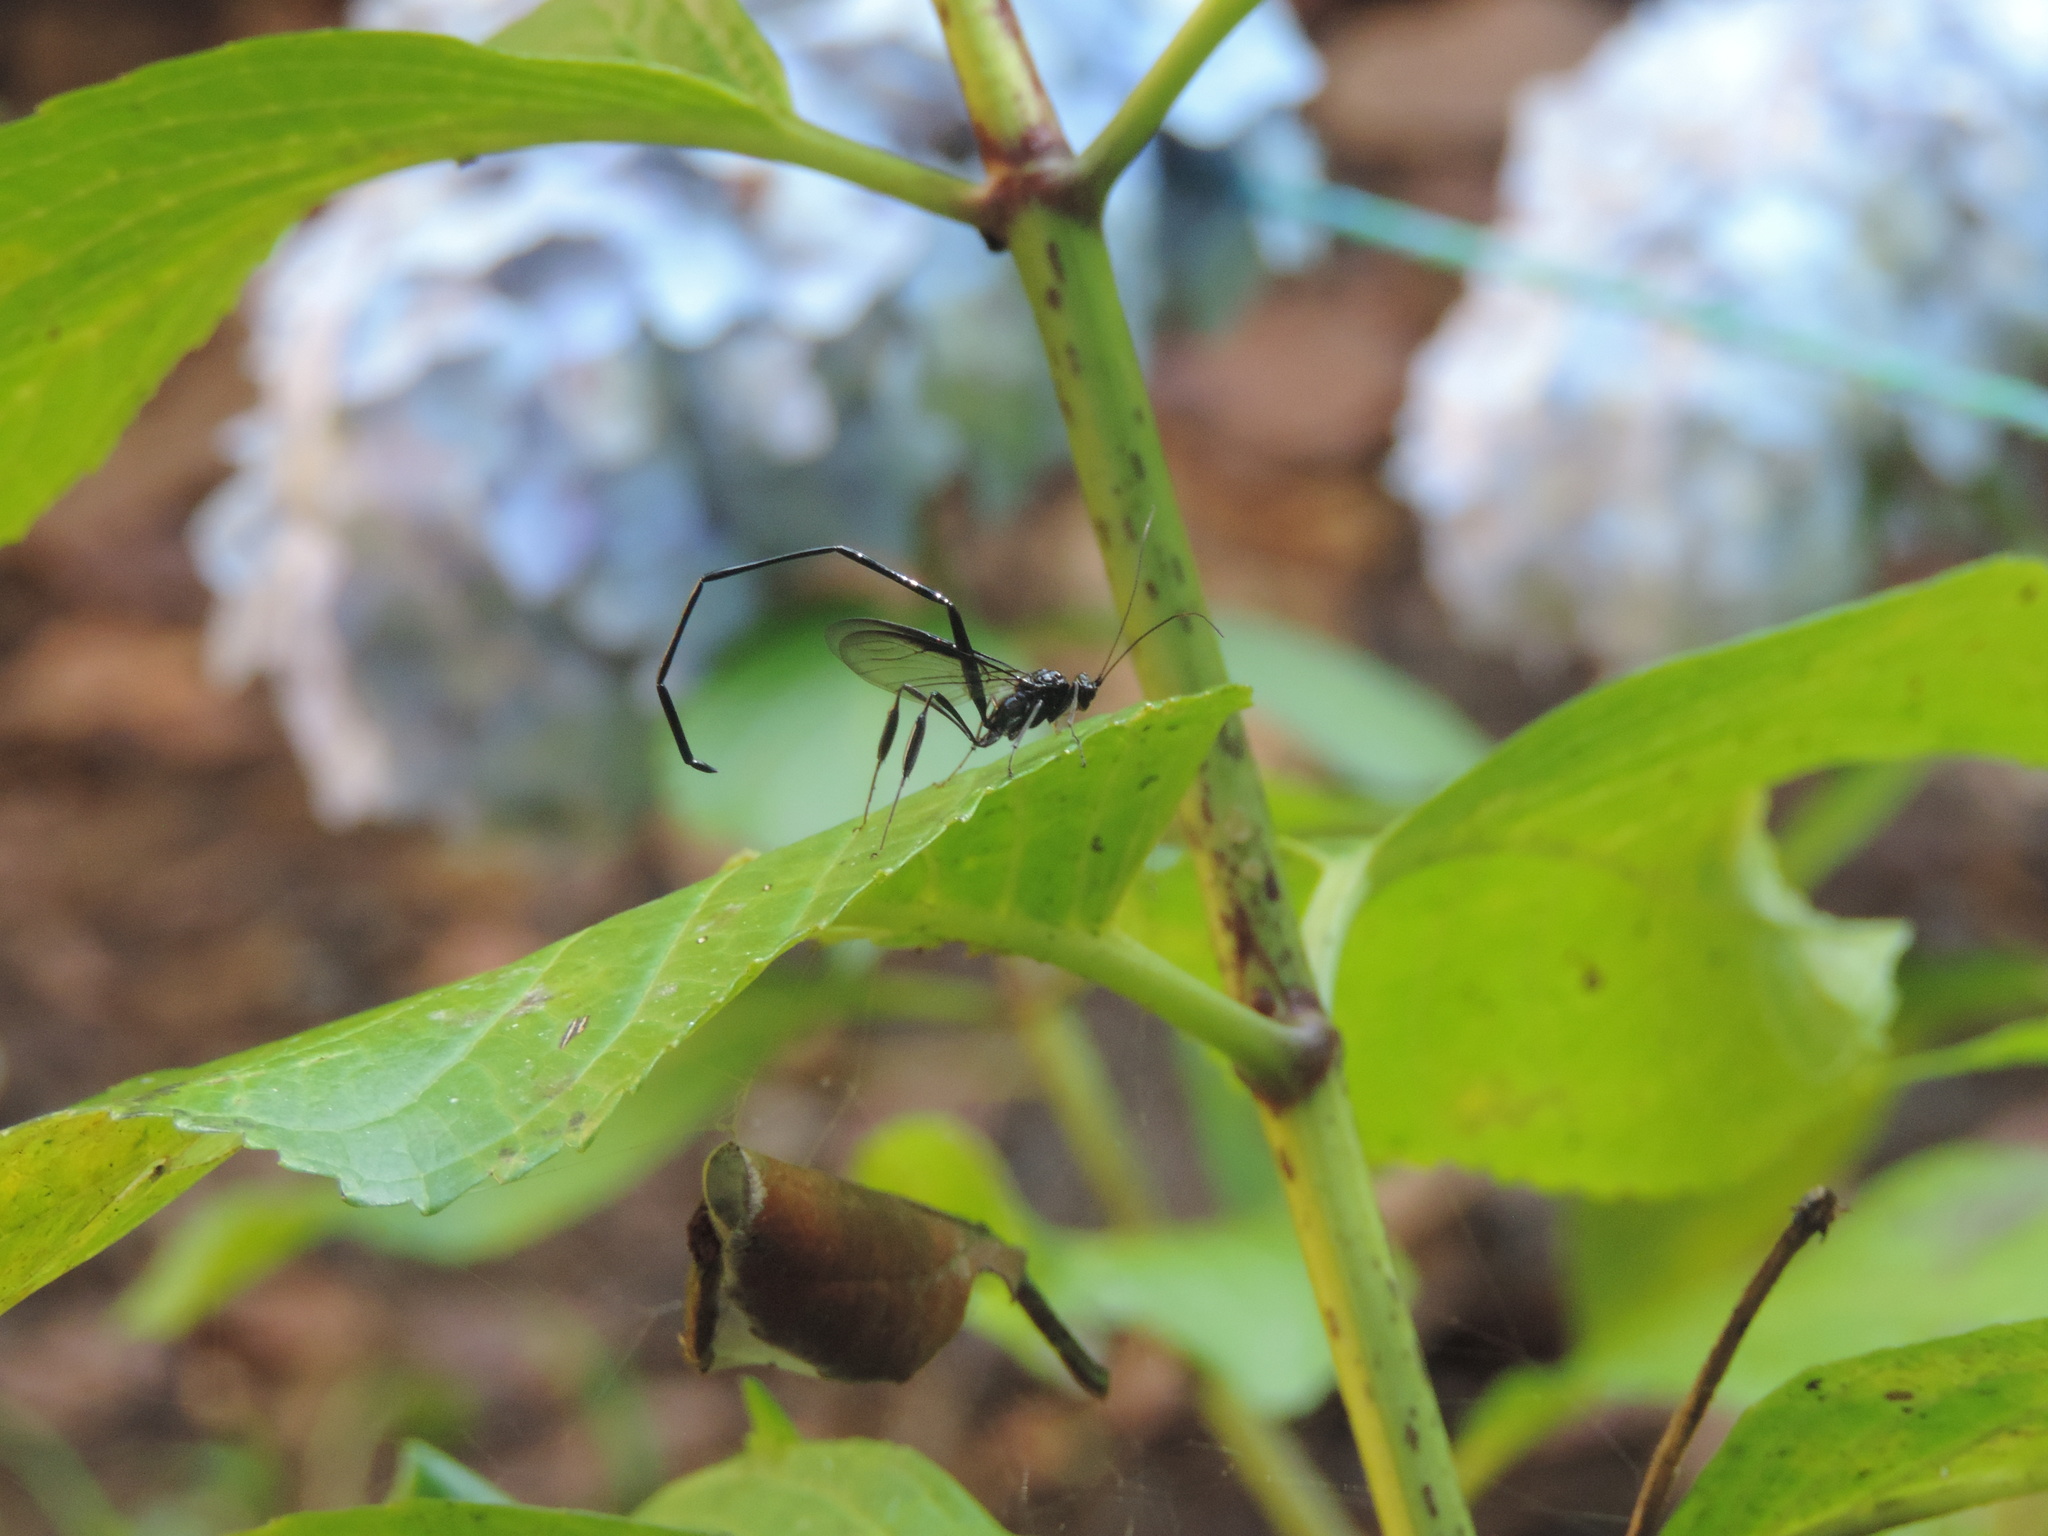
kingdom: Animalia
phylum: Arthropoda
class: Insecta
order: Hymenoptera
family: Pelecinidae
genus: Pelecinus
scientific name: Pelecinus polyturator
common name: American pelecinid wasp
